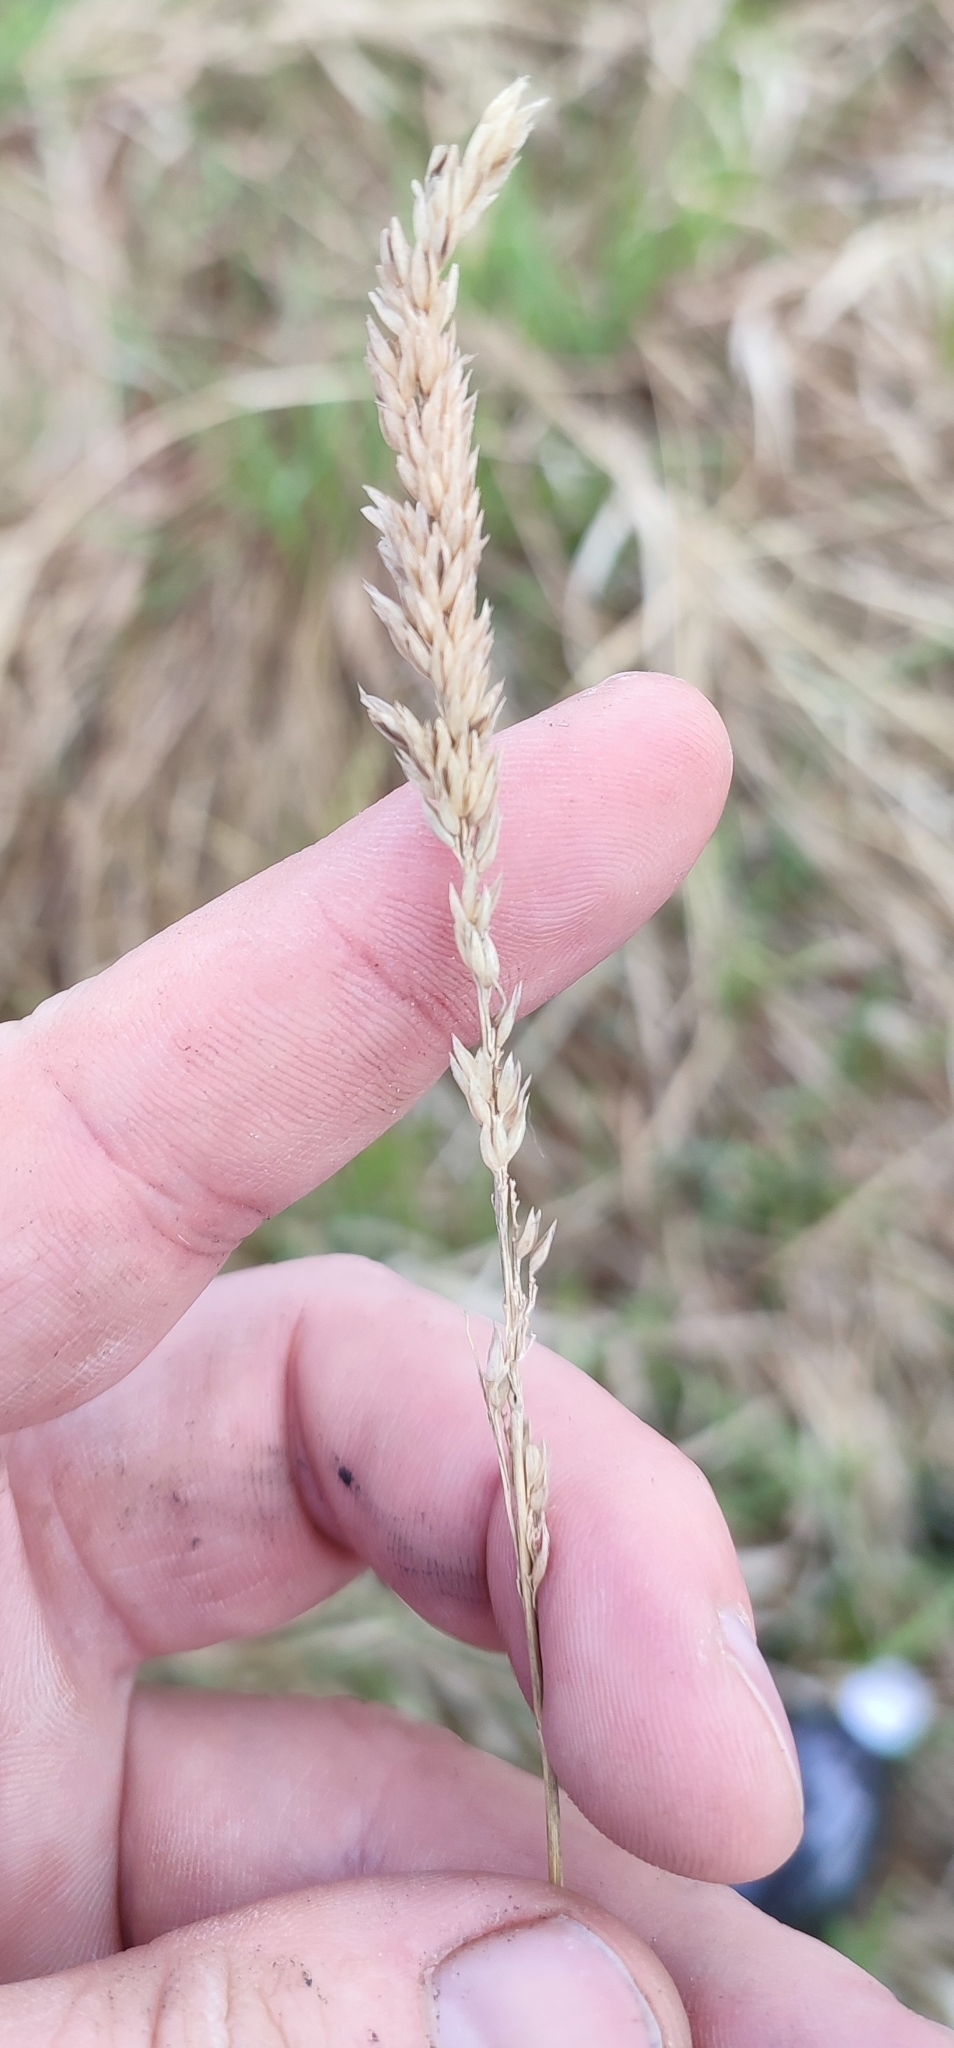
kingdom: Plantae
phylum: Tracheophyta
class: Liliopsida
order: Poales
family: Poaceae
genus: Phalaris
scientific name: Phalaris arundinacea
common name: Reed canary-grass
